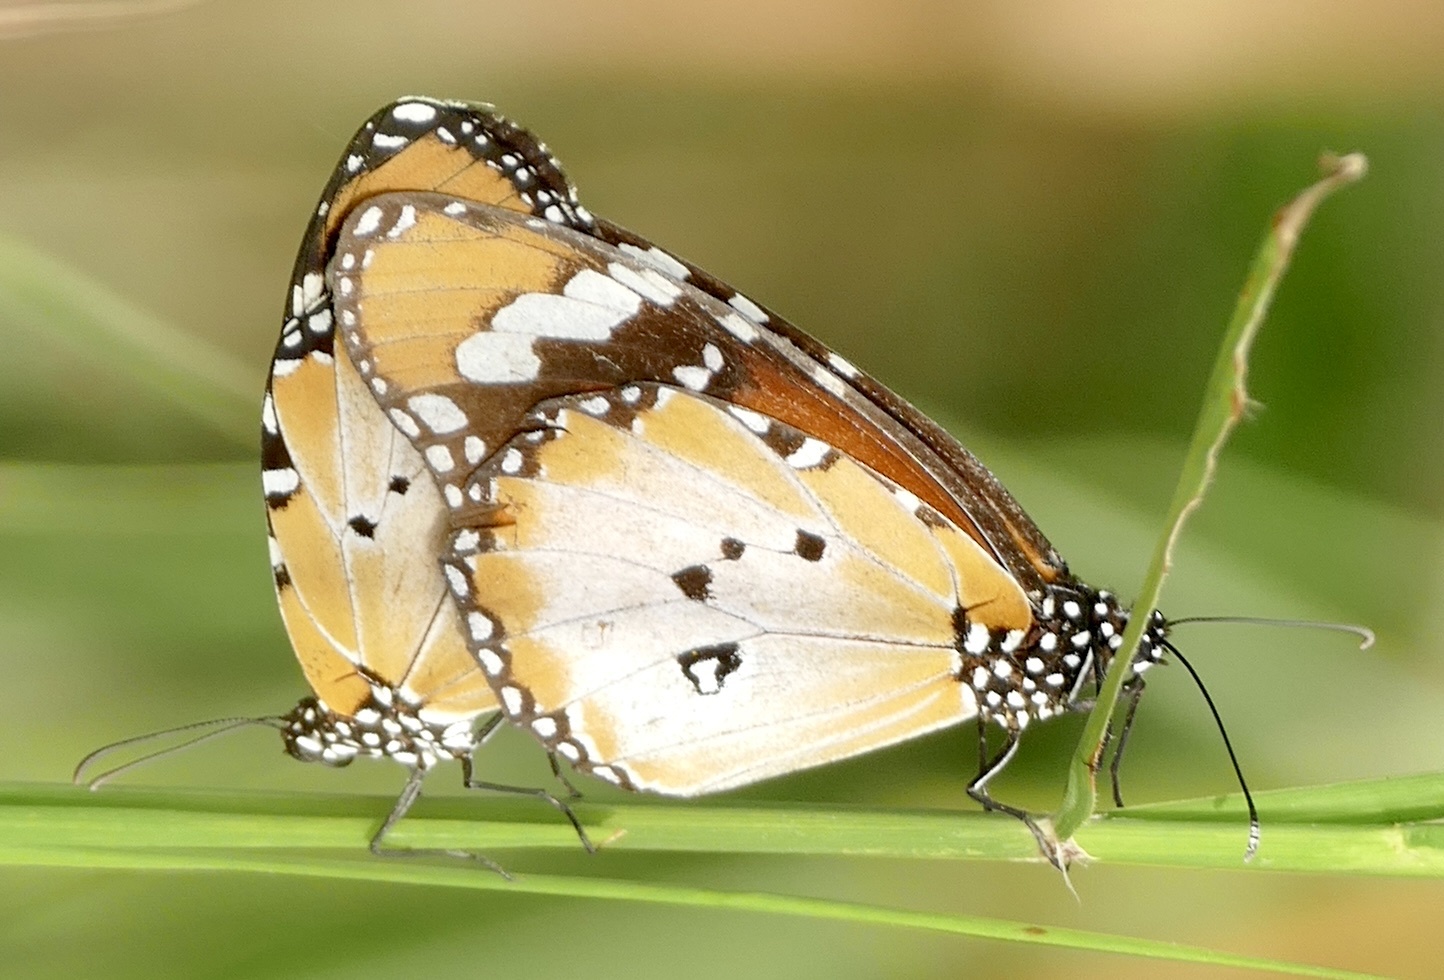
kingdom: Animalia
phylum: Arthropoda
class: Insecta
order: Lepidoptera
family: Nymphalidae
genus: Danaus
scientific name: Danaus chrysippus
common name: Plain tiger
